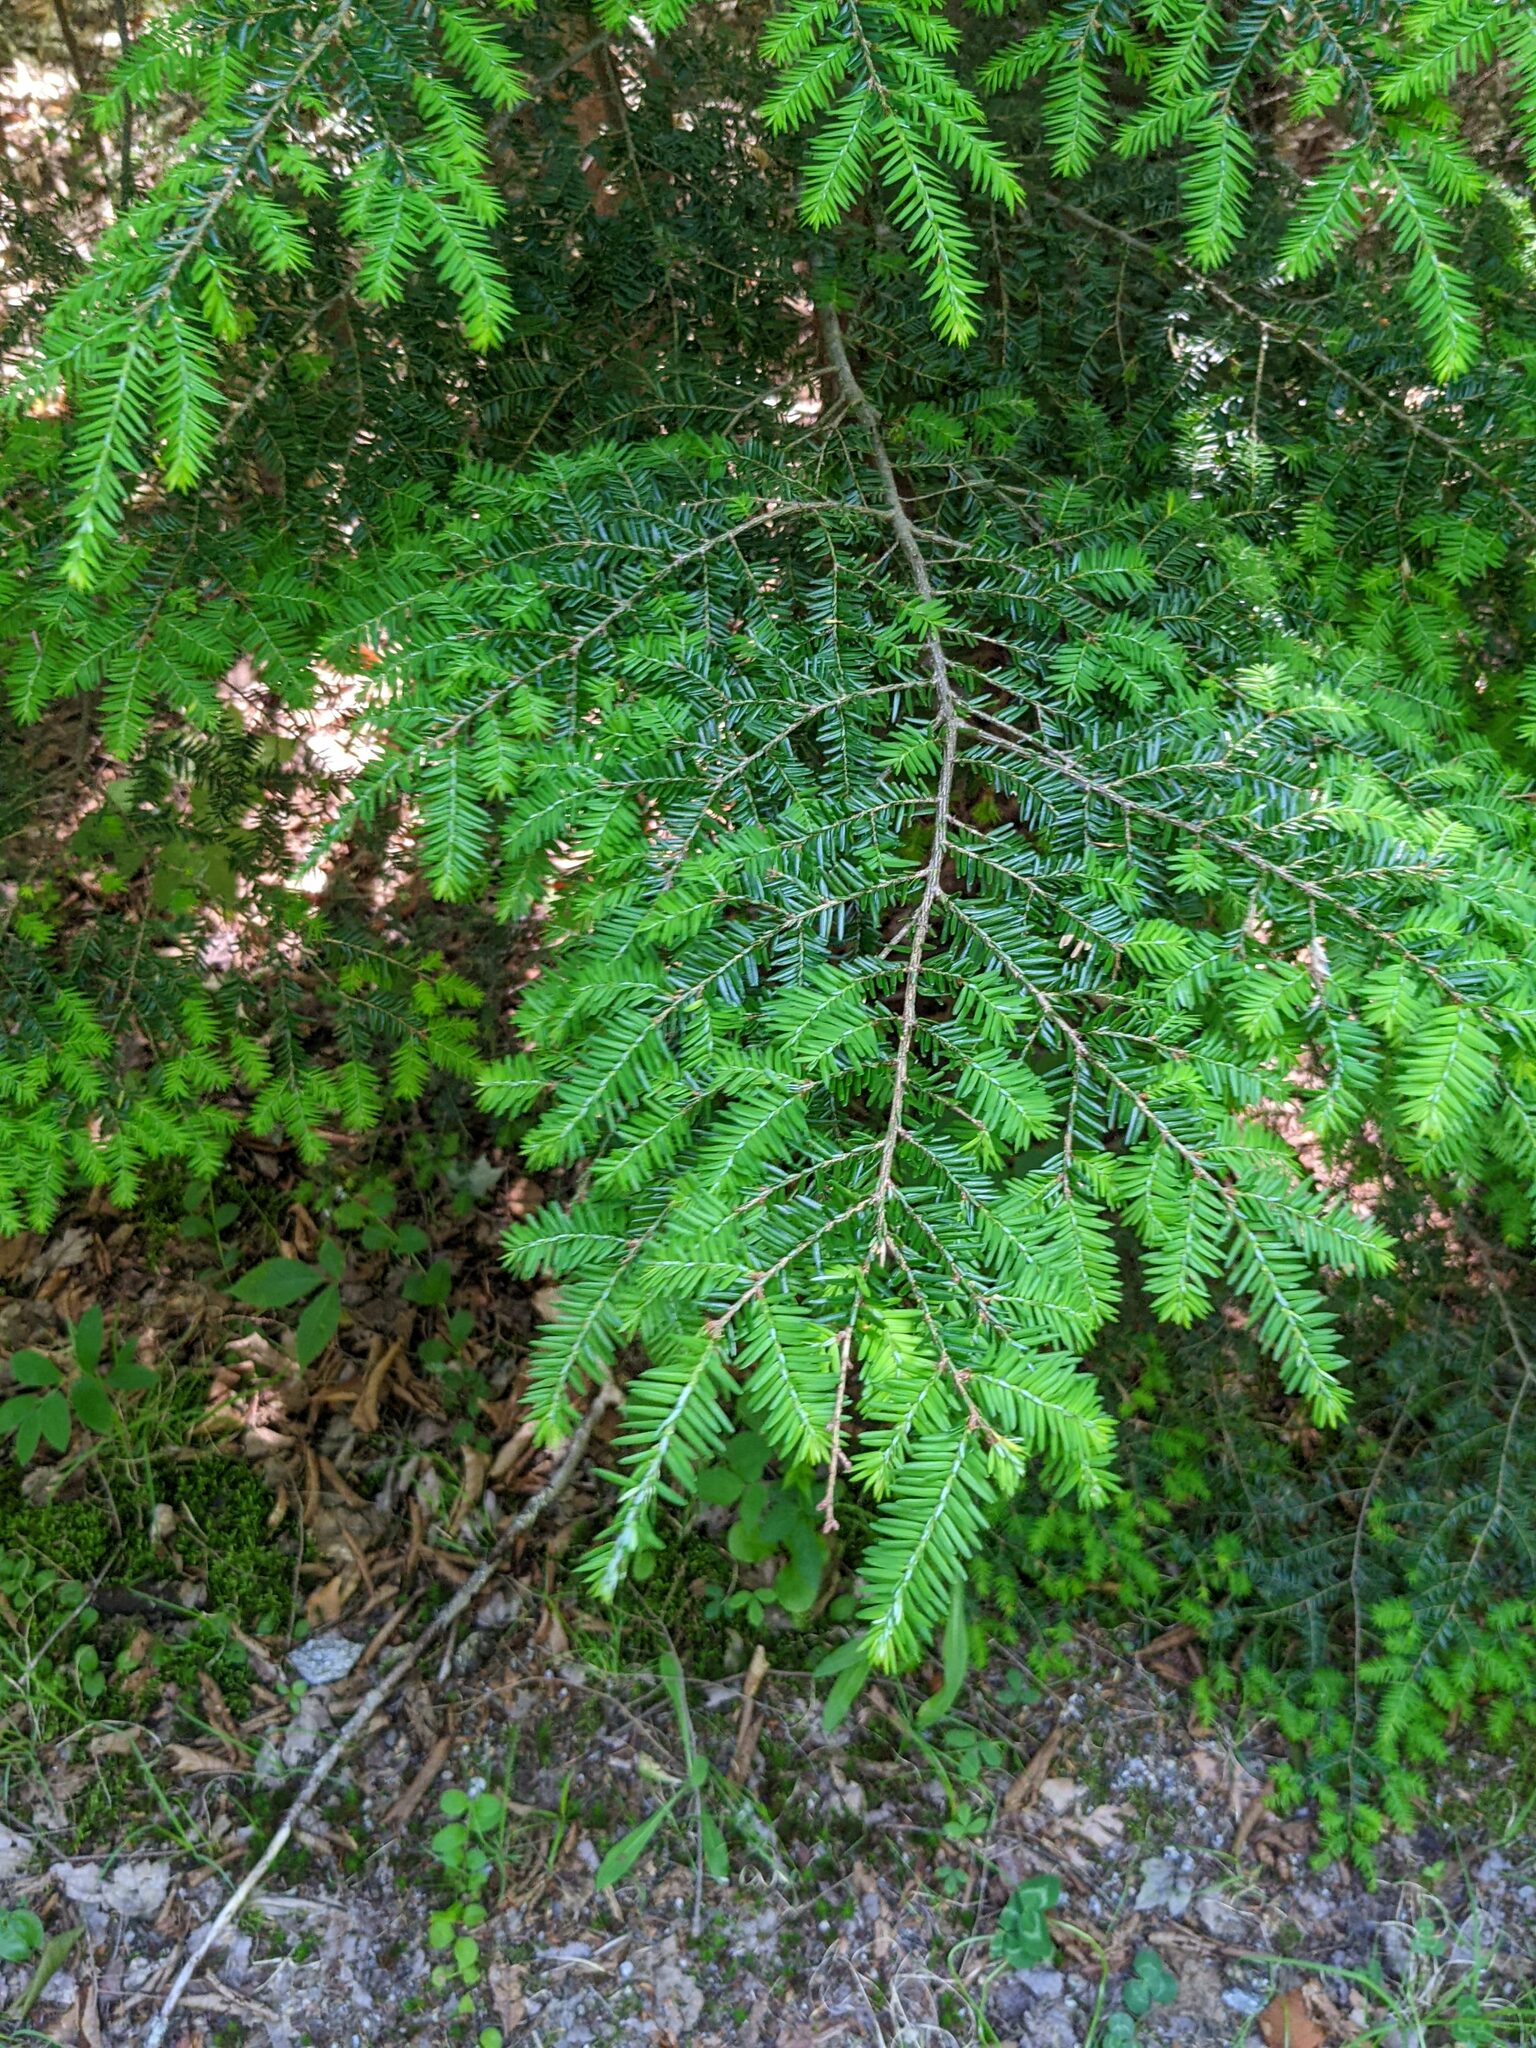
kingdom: Plantae
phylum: Tracheophyta
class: Pinopsida
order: Pinales
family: Pinaceae
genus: Tsuga
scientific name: Tsuga canadensis
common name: Eastern hemlock
